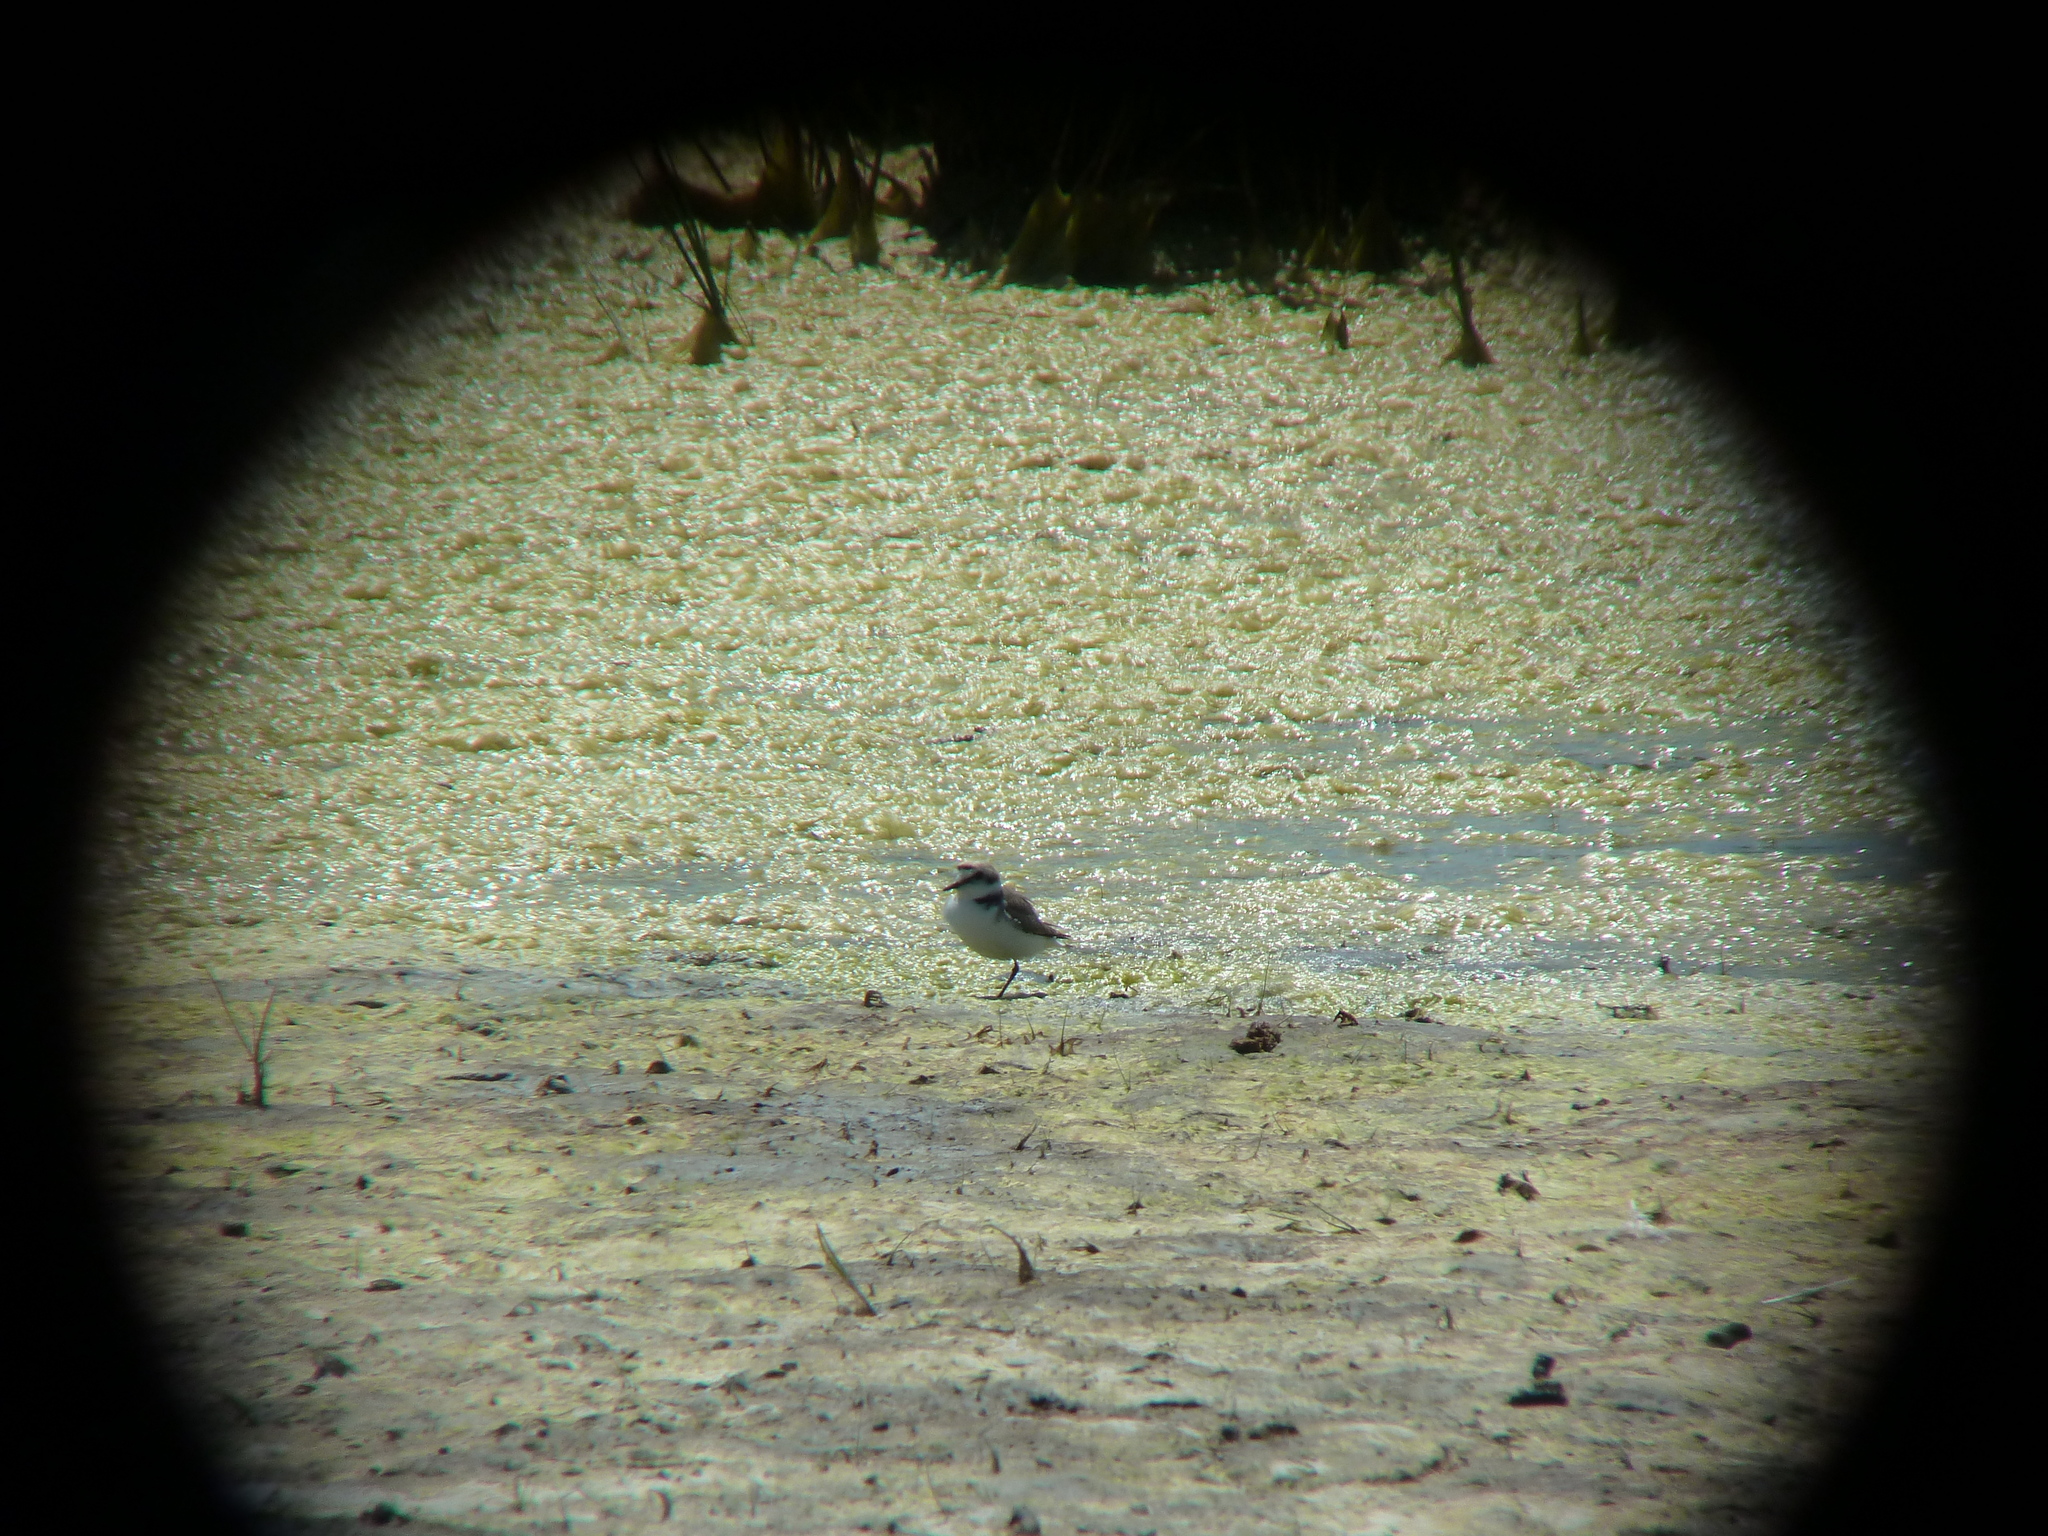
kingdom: Animalia
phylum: Chordata
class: Aves
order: Charadriiformes
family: Charadriidae
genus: Charadrius
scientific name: Charadrius alexandrinus
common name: Kentish plover
